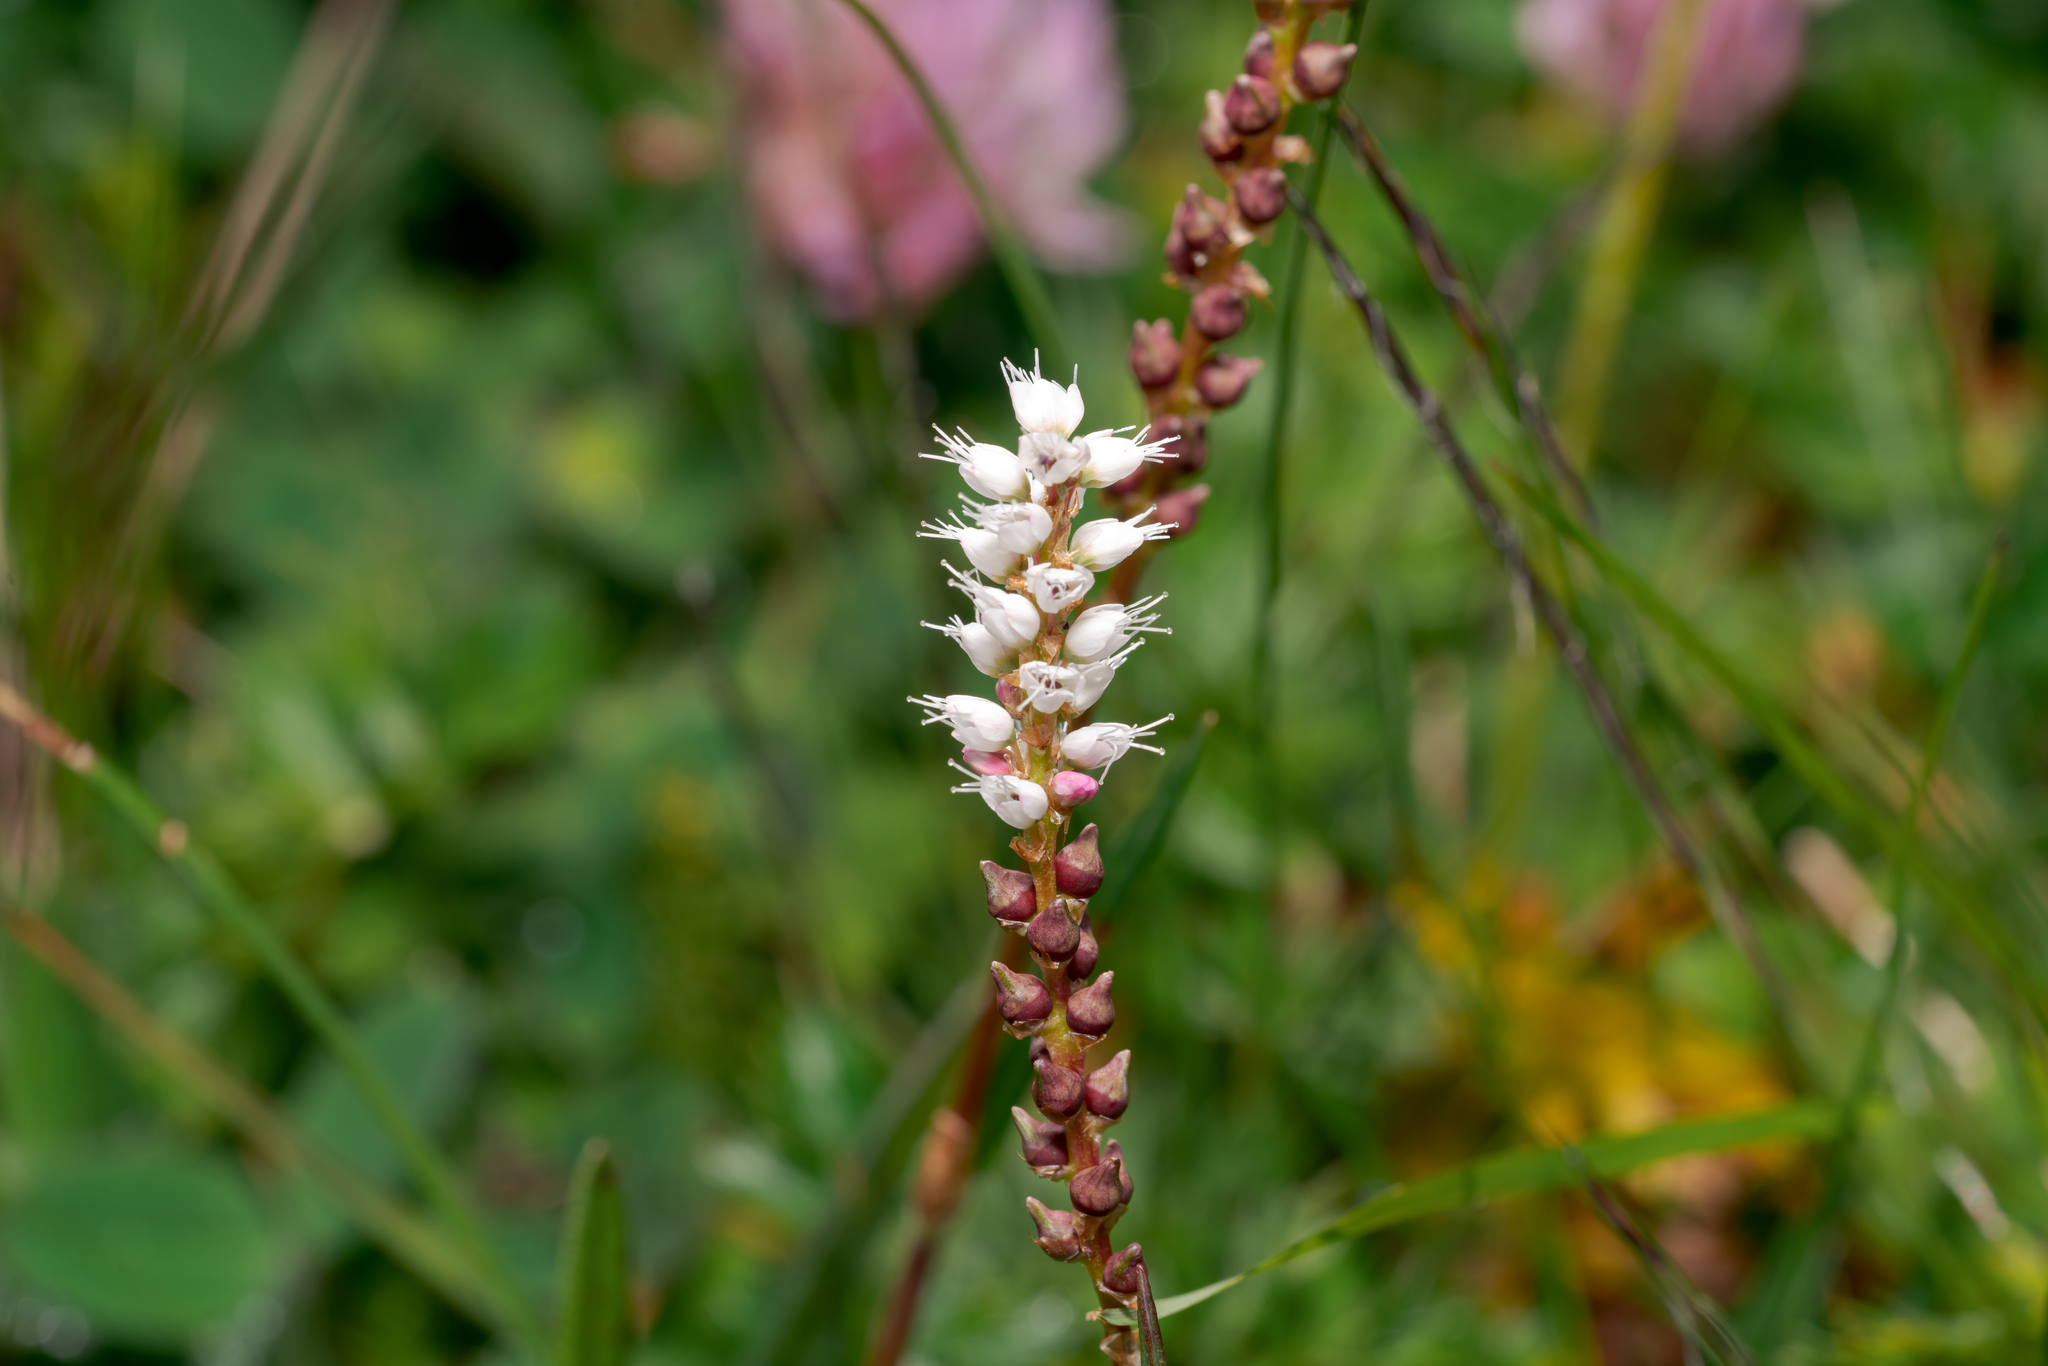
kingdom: Plantae
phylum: Tracheophyta
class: Magnoliopsida
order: Caryophyllales
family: Polygonaceae
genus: Bistorta
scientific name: Bistorta vivipara
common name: Alpine bistort
